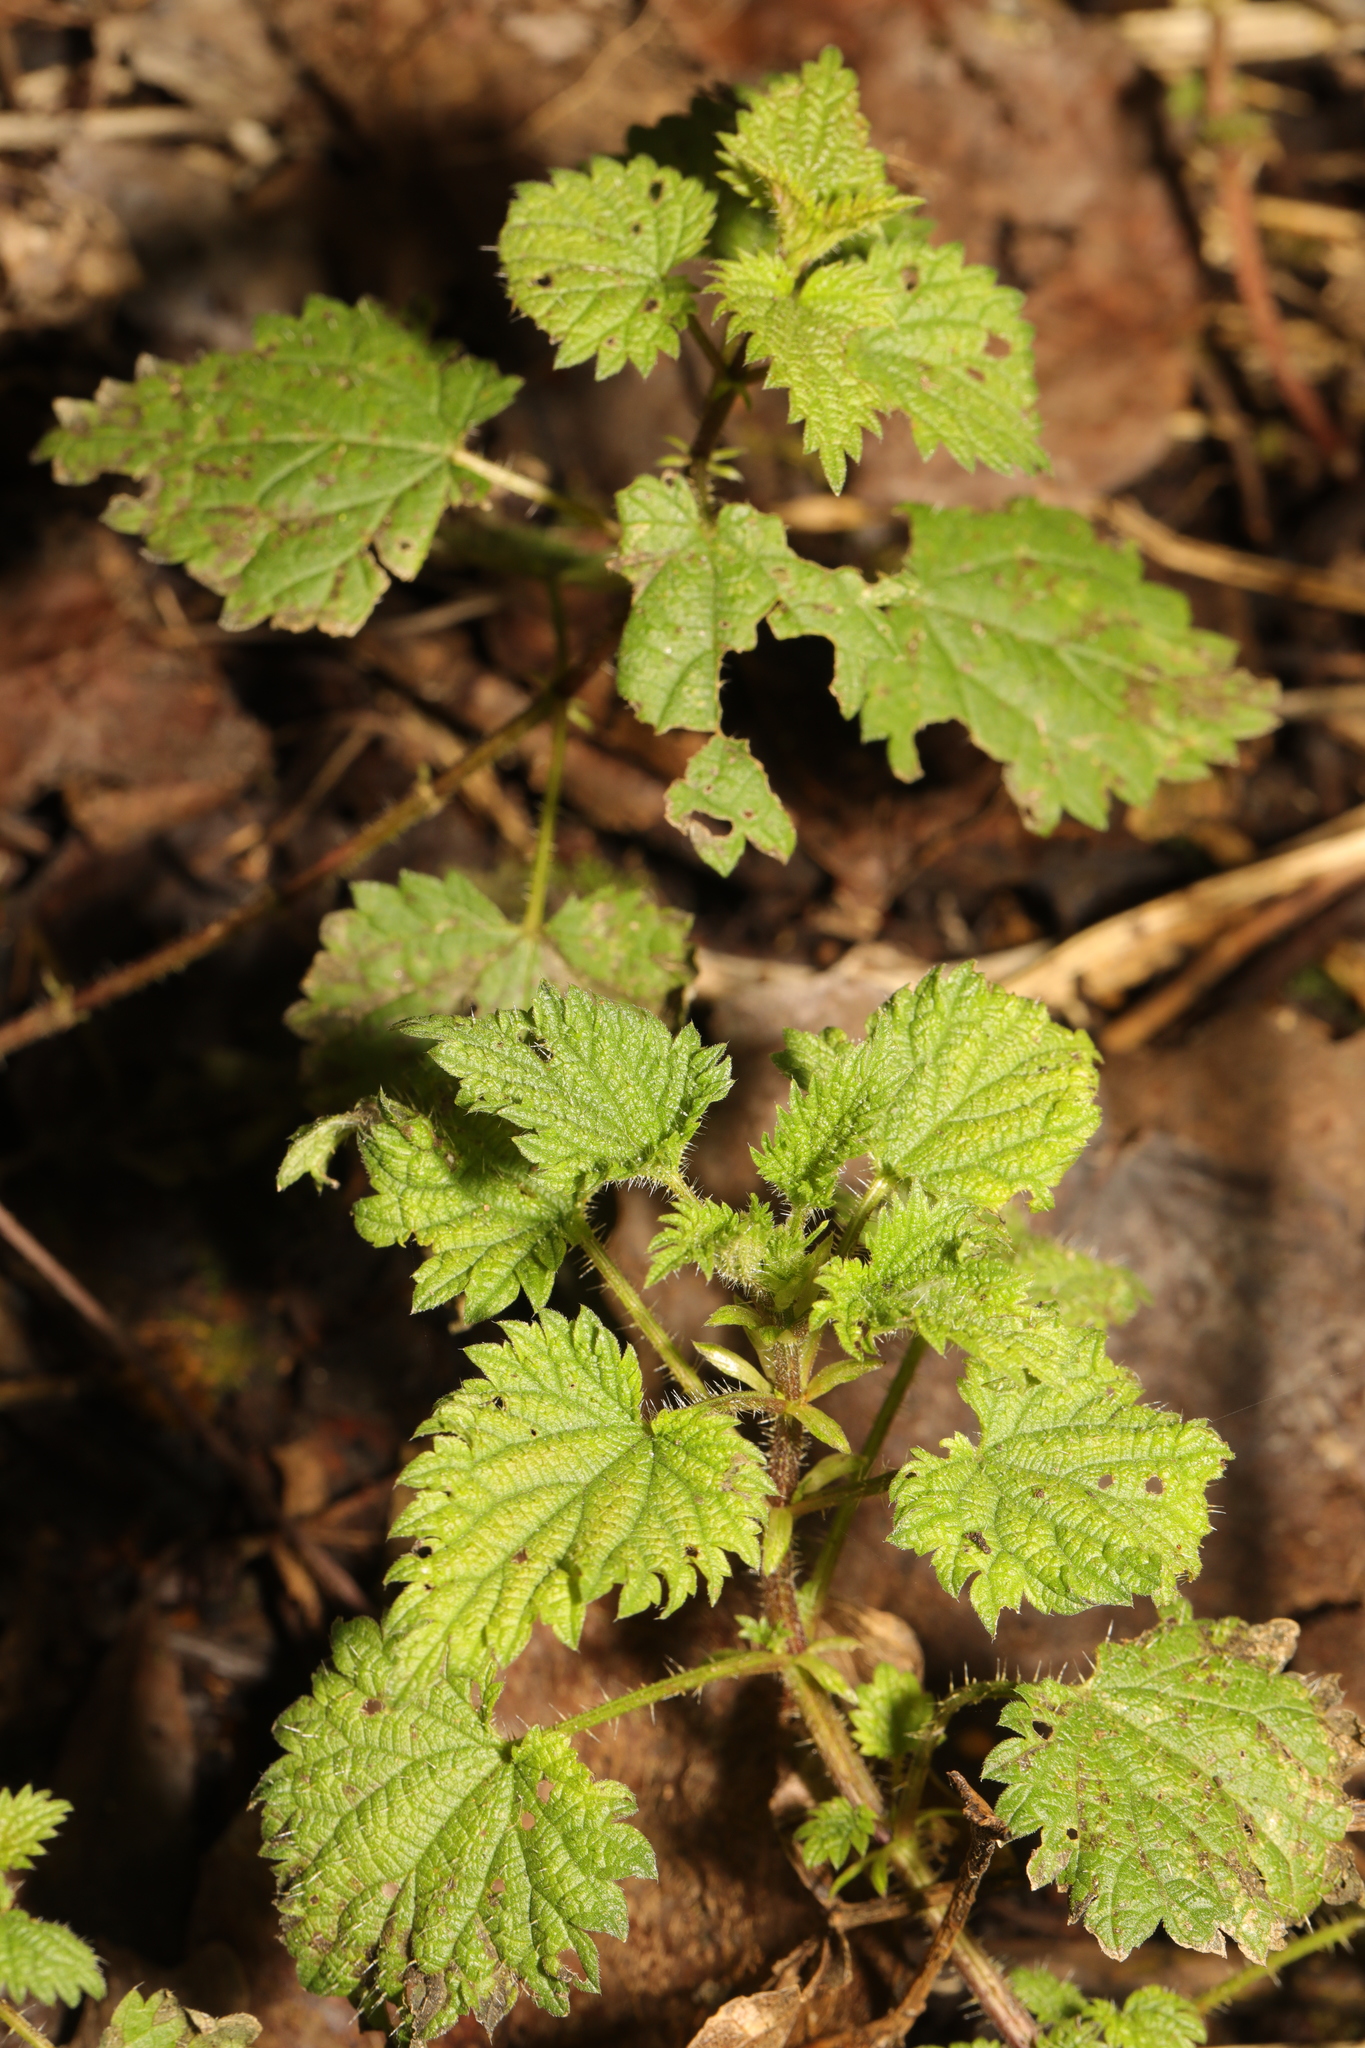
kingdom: Plantae
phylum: Tracheophyta
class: Magnoliopsida
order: Rosales
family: Urticaceae
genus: Urtica
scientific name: Urtica dioica
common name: Common nettle
